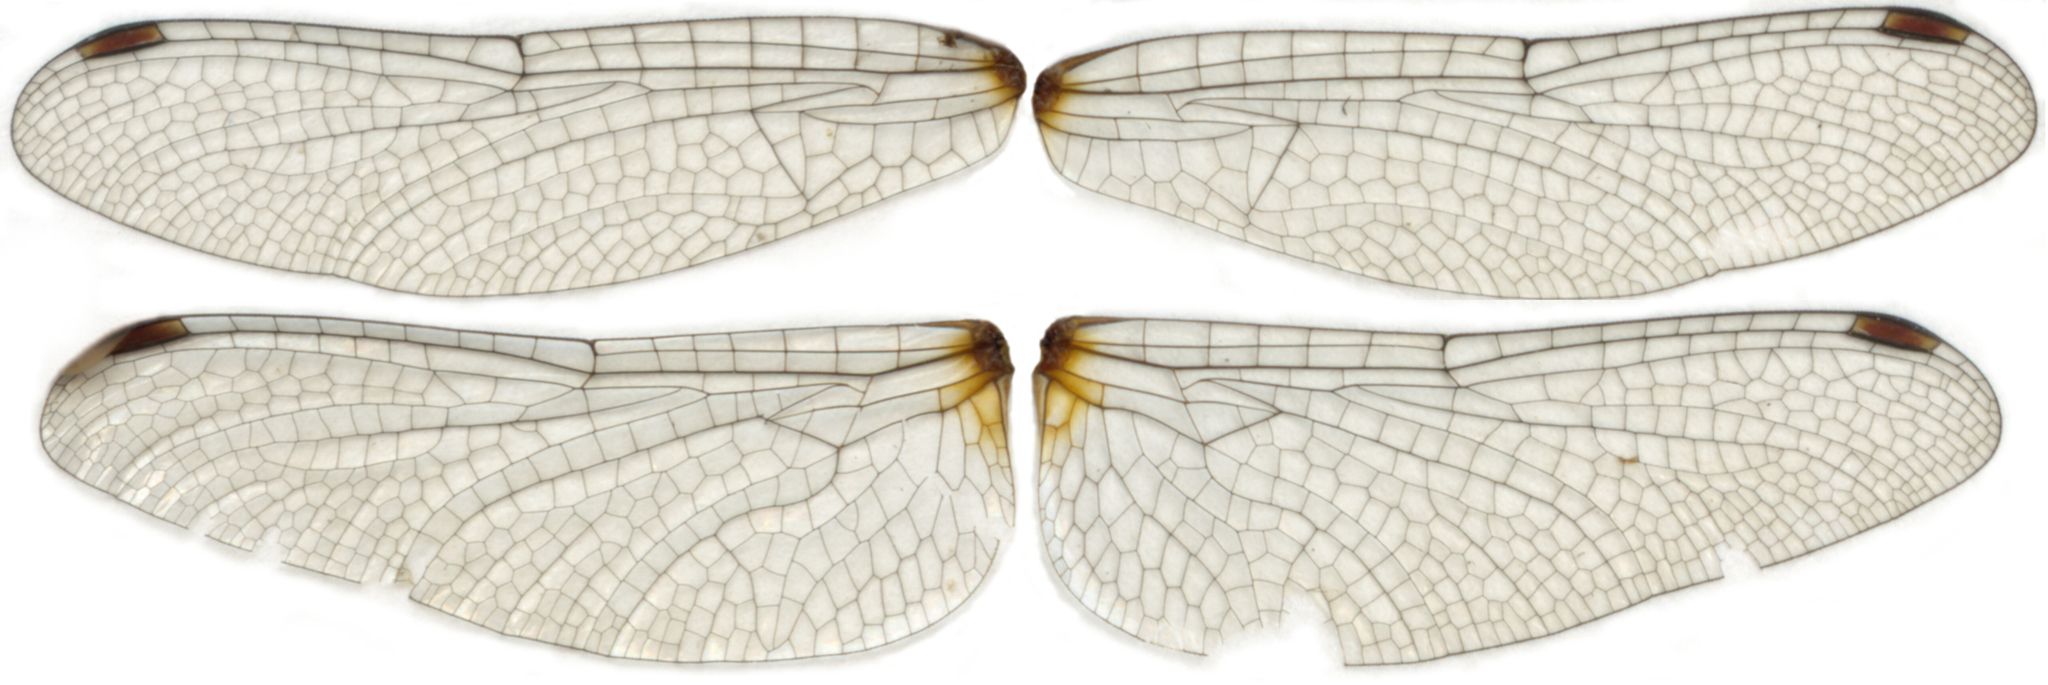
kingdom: Animalia
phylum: Arthropoda
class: Insecta
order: Odonata
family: Libellulidae
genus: Sympetrum
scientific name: Sympetrum
